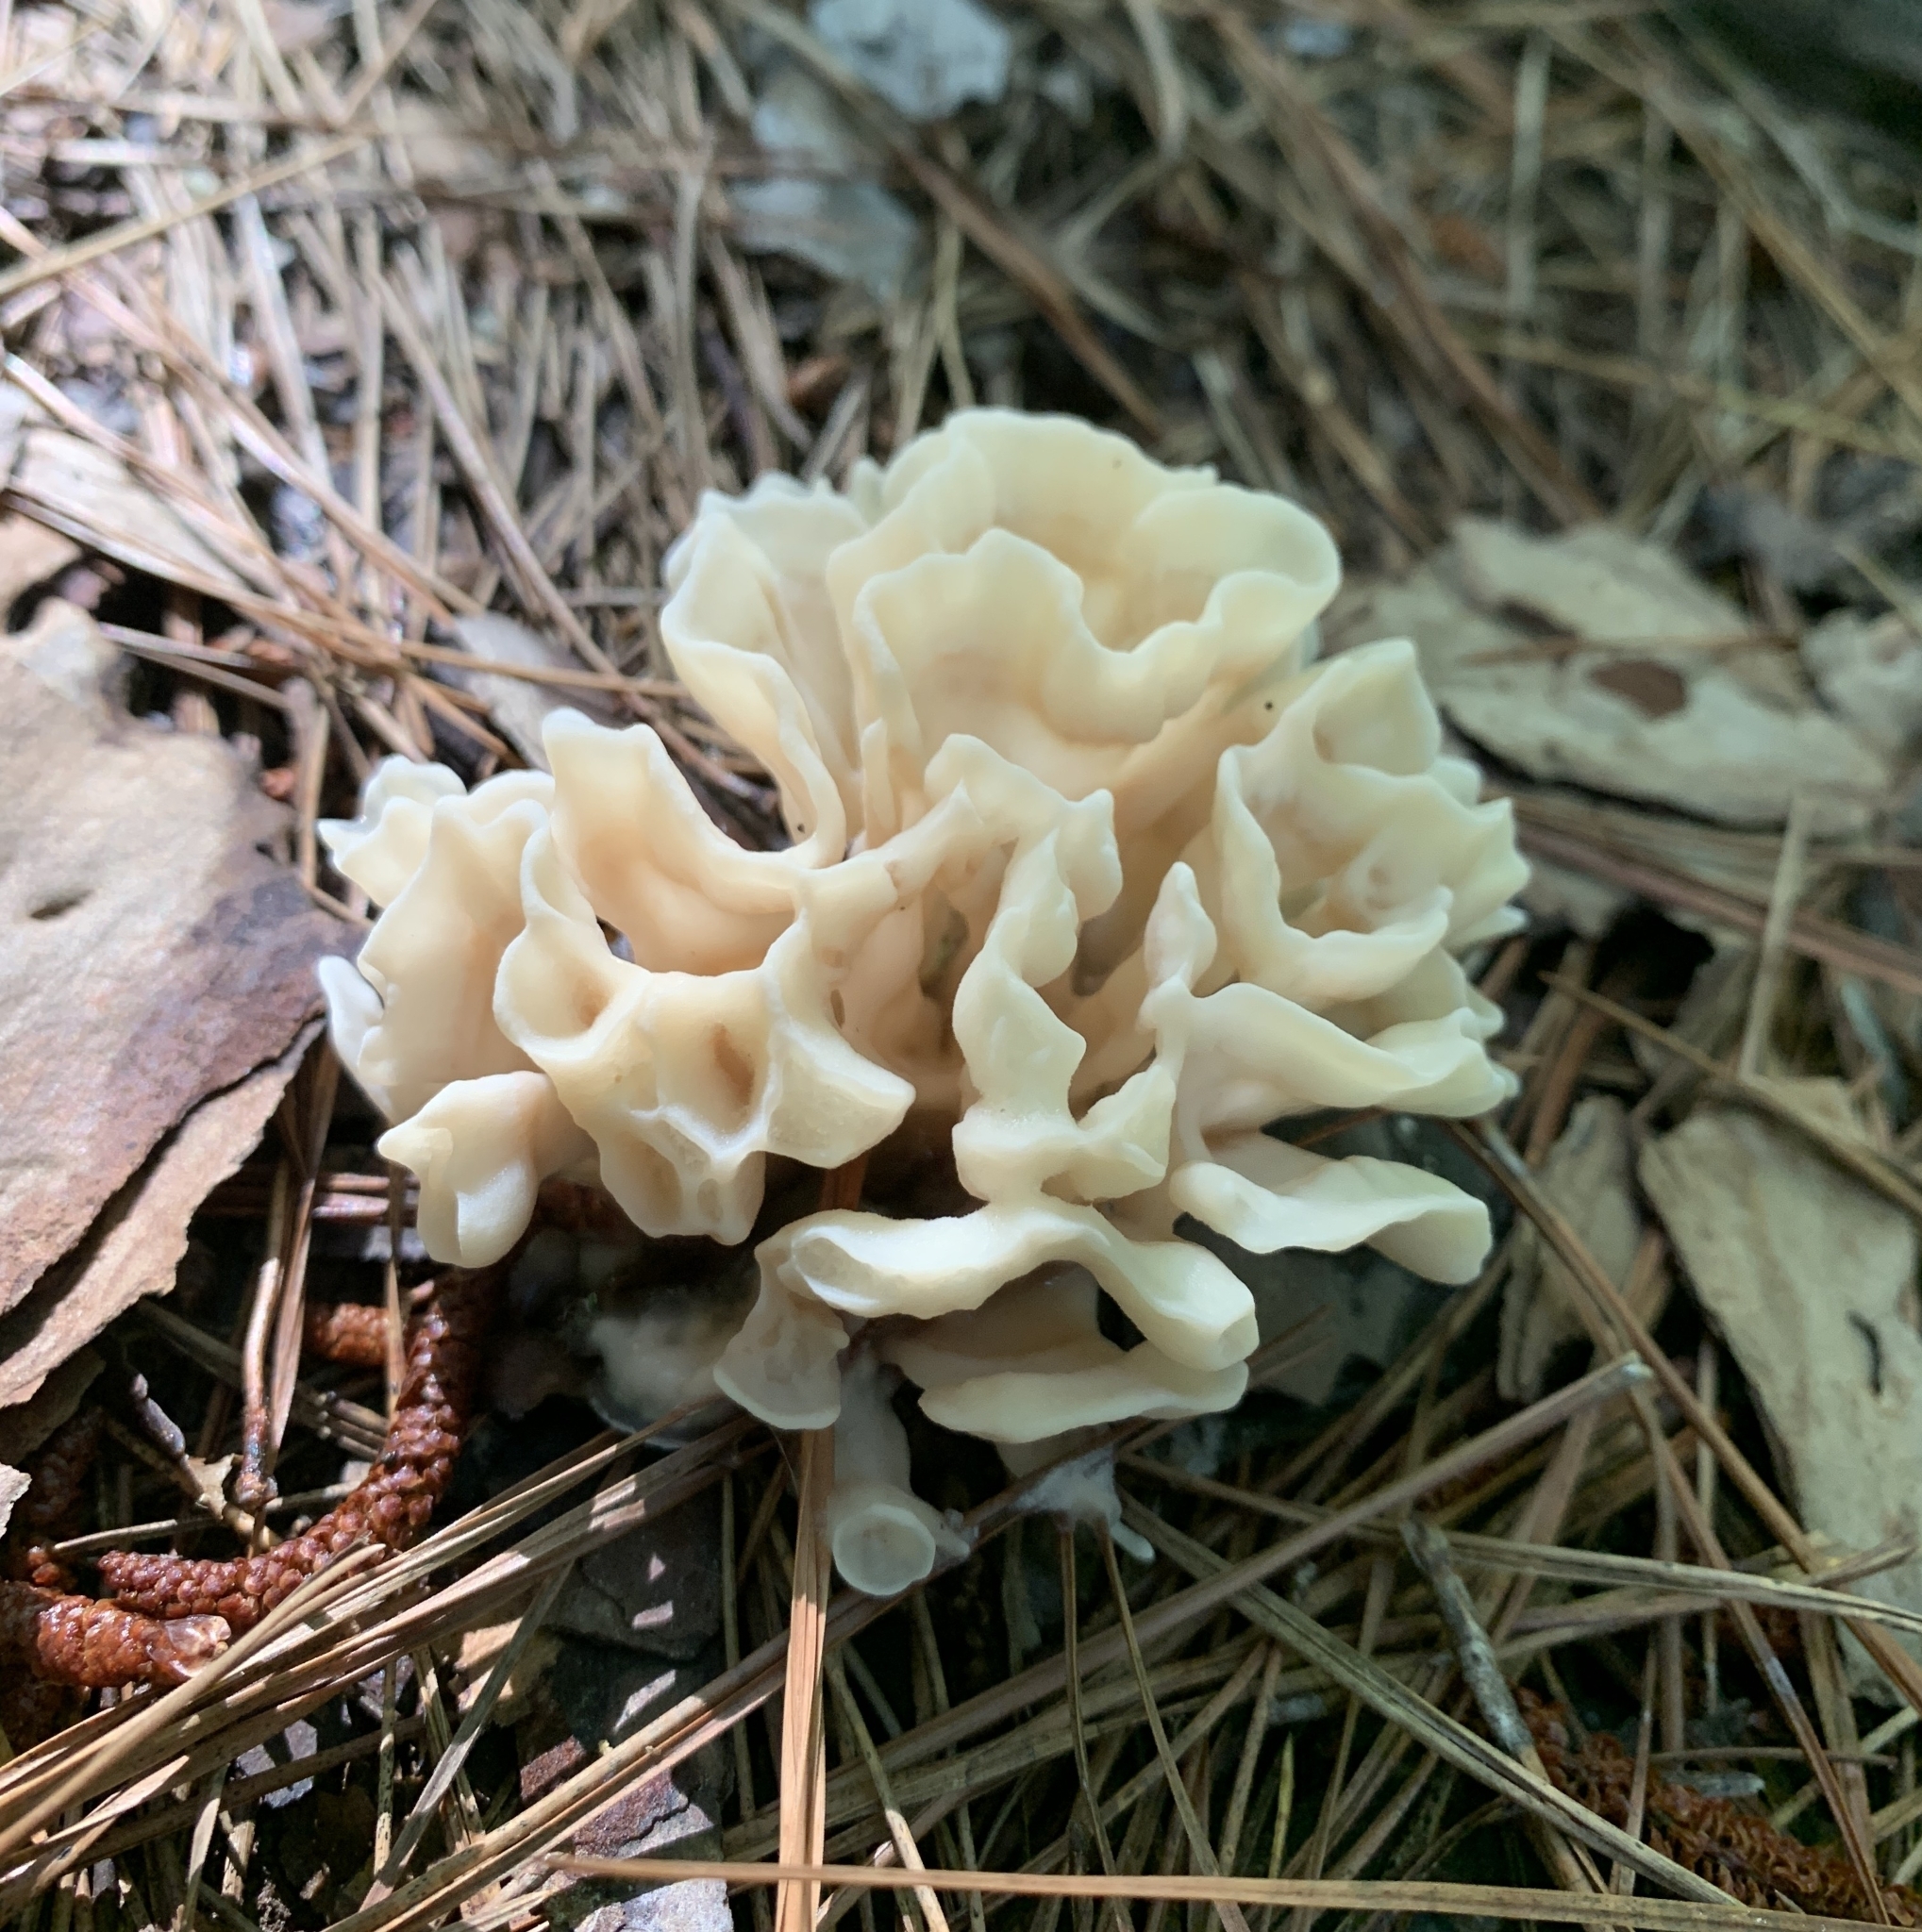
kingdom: Fungi
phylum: Basidiomycota
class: Agaricomycetes
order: Polyporales
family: Sparassidaceae
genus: Sparassis
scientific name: Sparassis spathulata
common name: Eastern cauliflower mushroom
